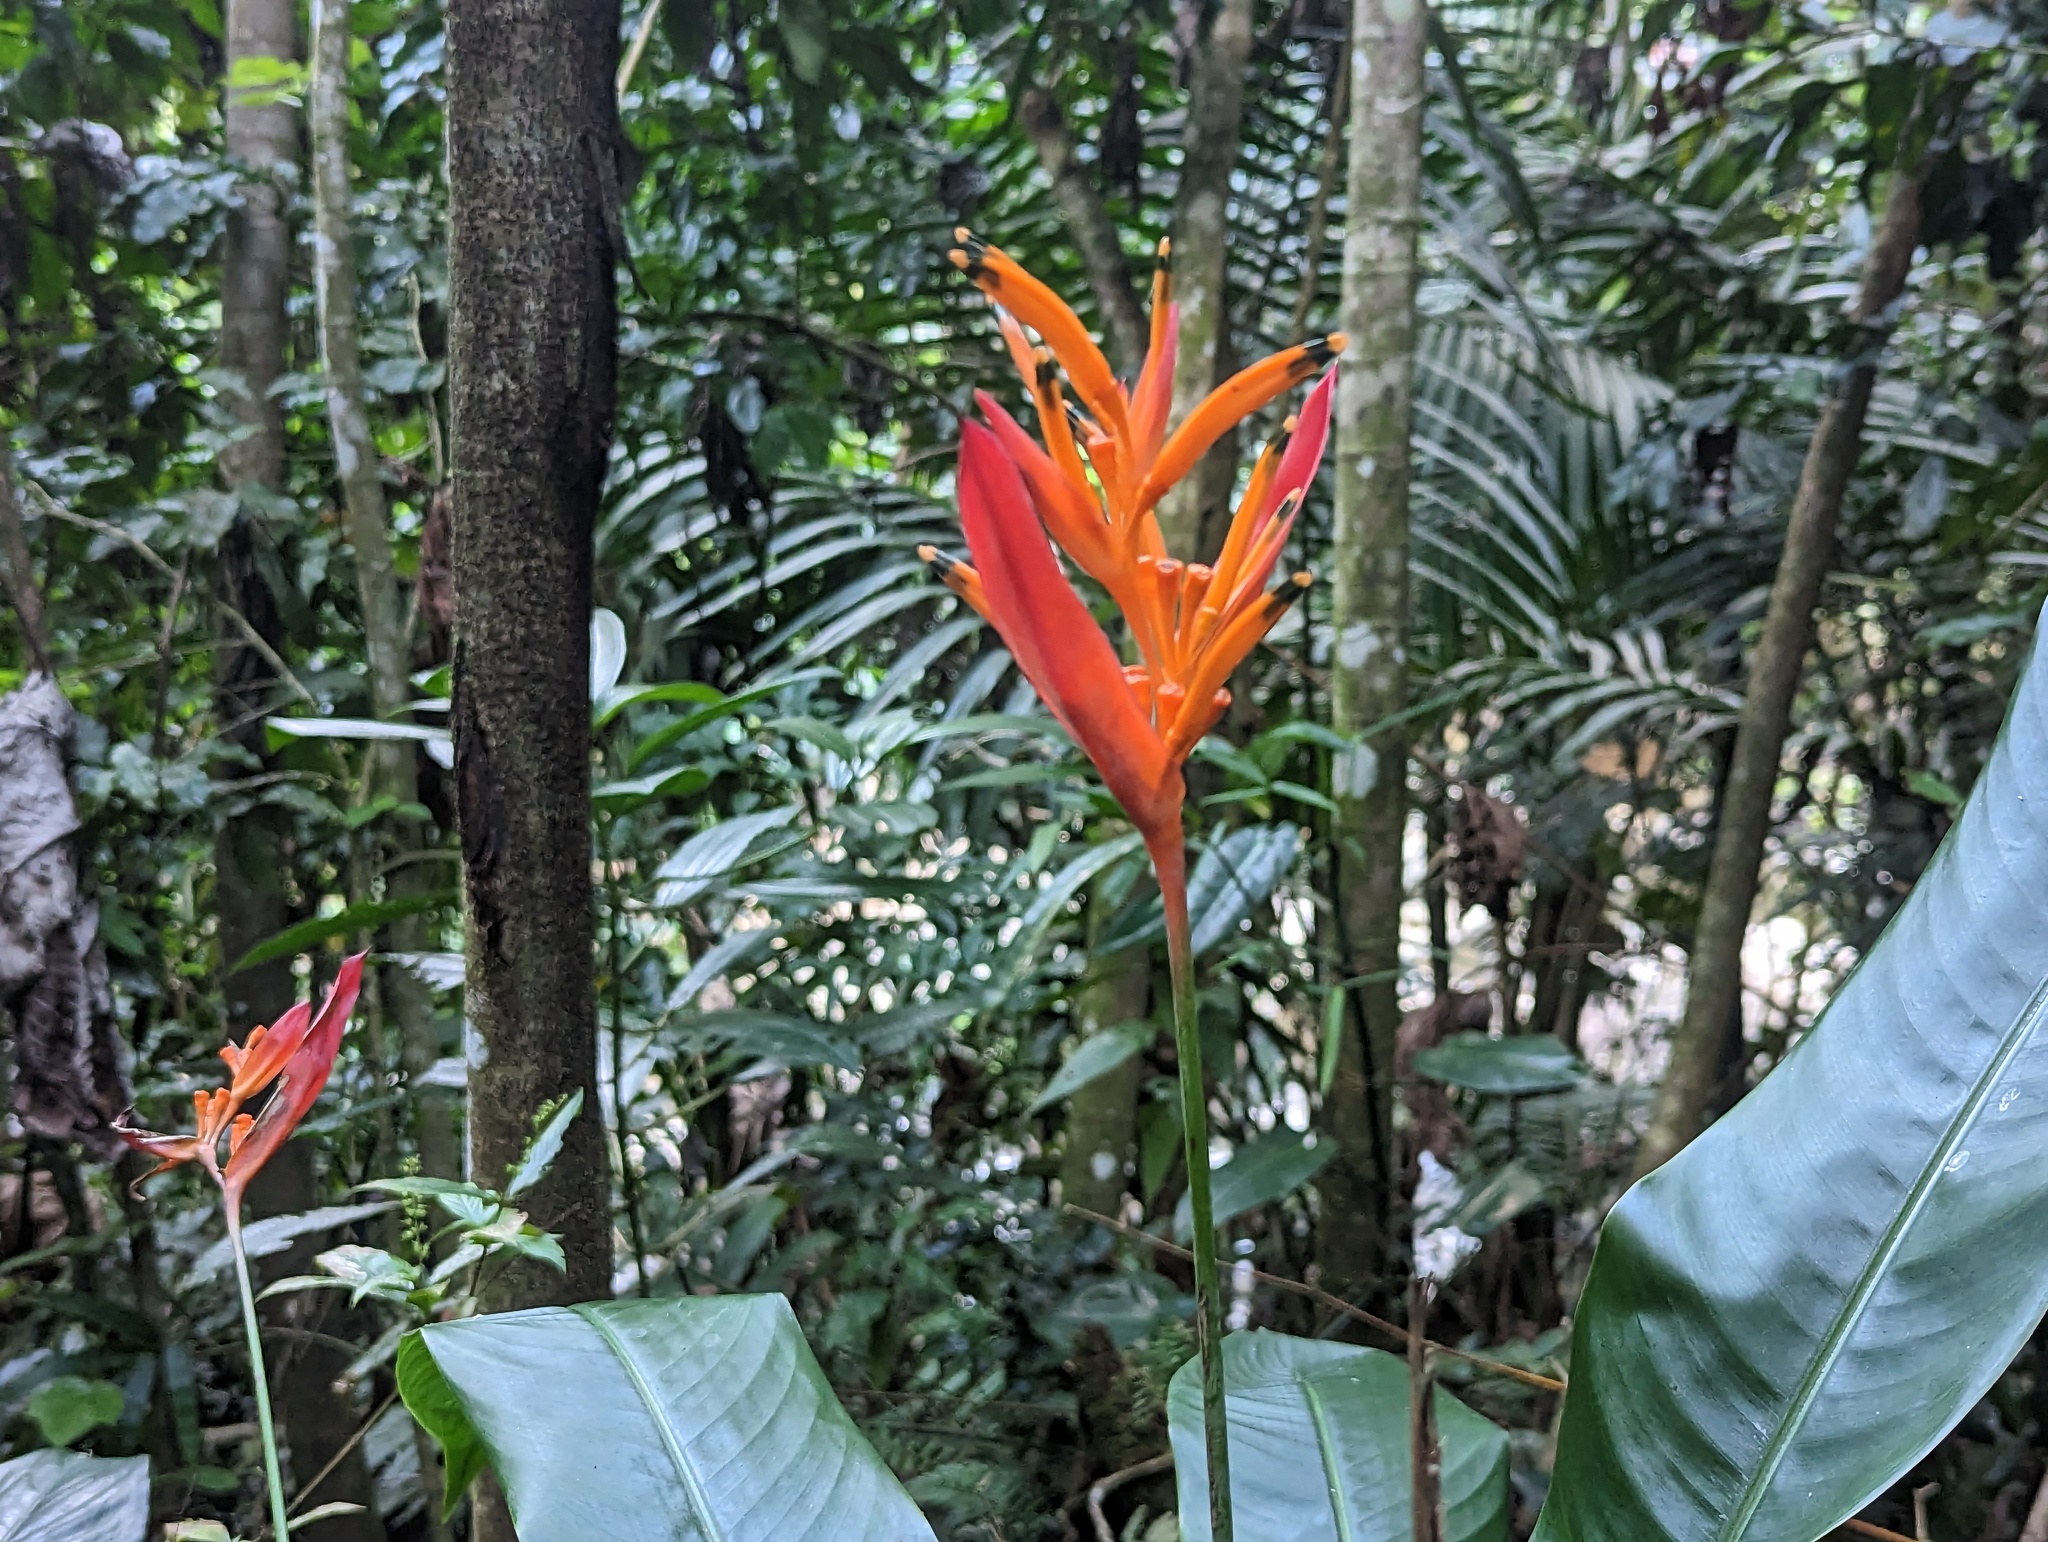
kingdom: Plantae
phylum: Tracheophyta
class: Liliopsida
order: Zingiberales
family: Heliconiaceae
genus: Heliconia
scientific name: Heliconia psittacorum
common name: Parrot's-flower
